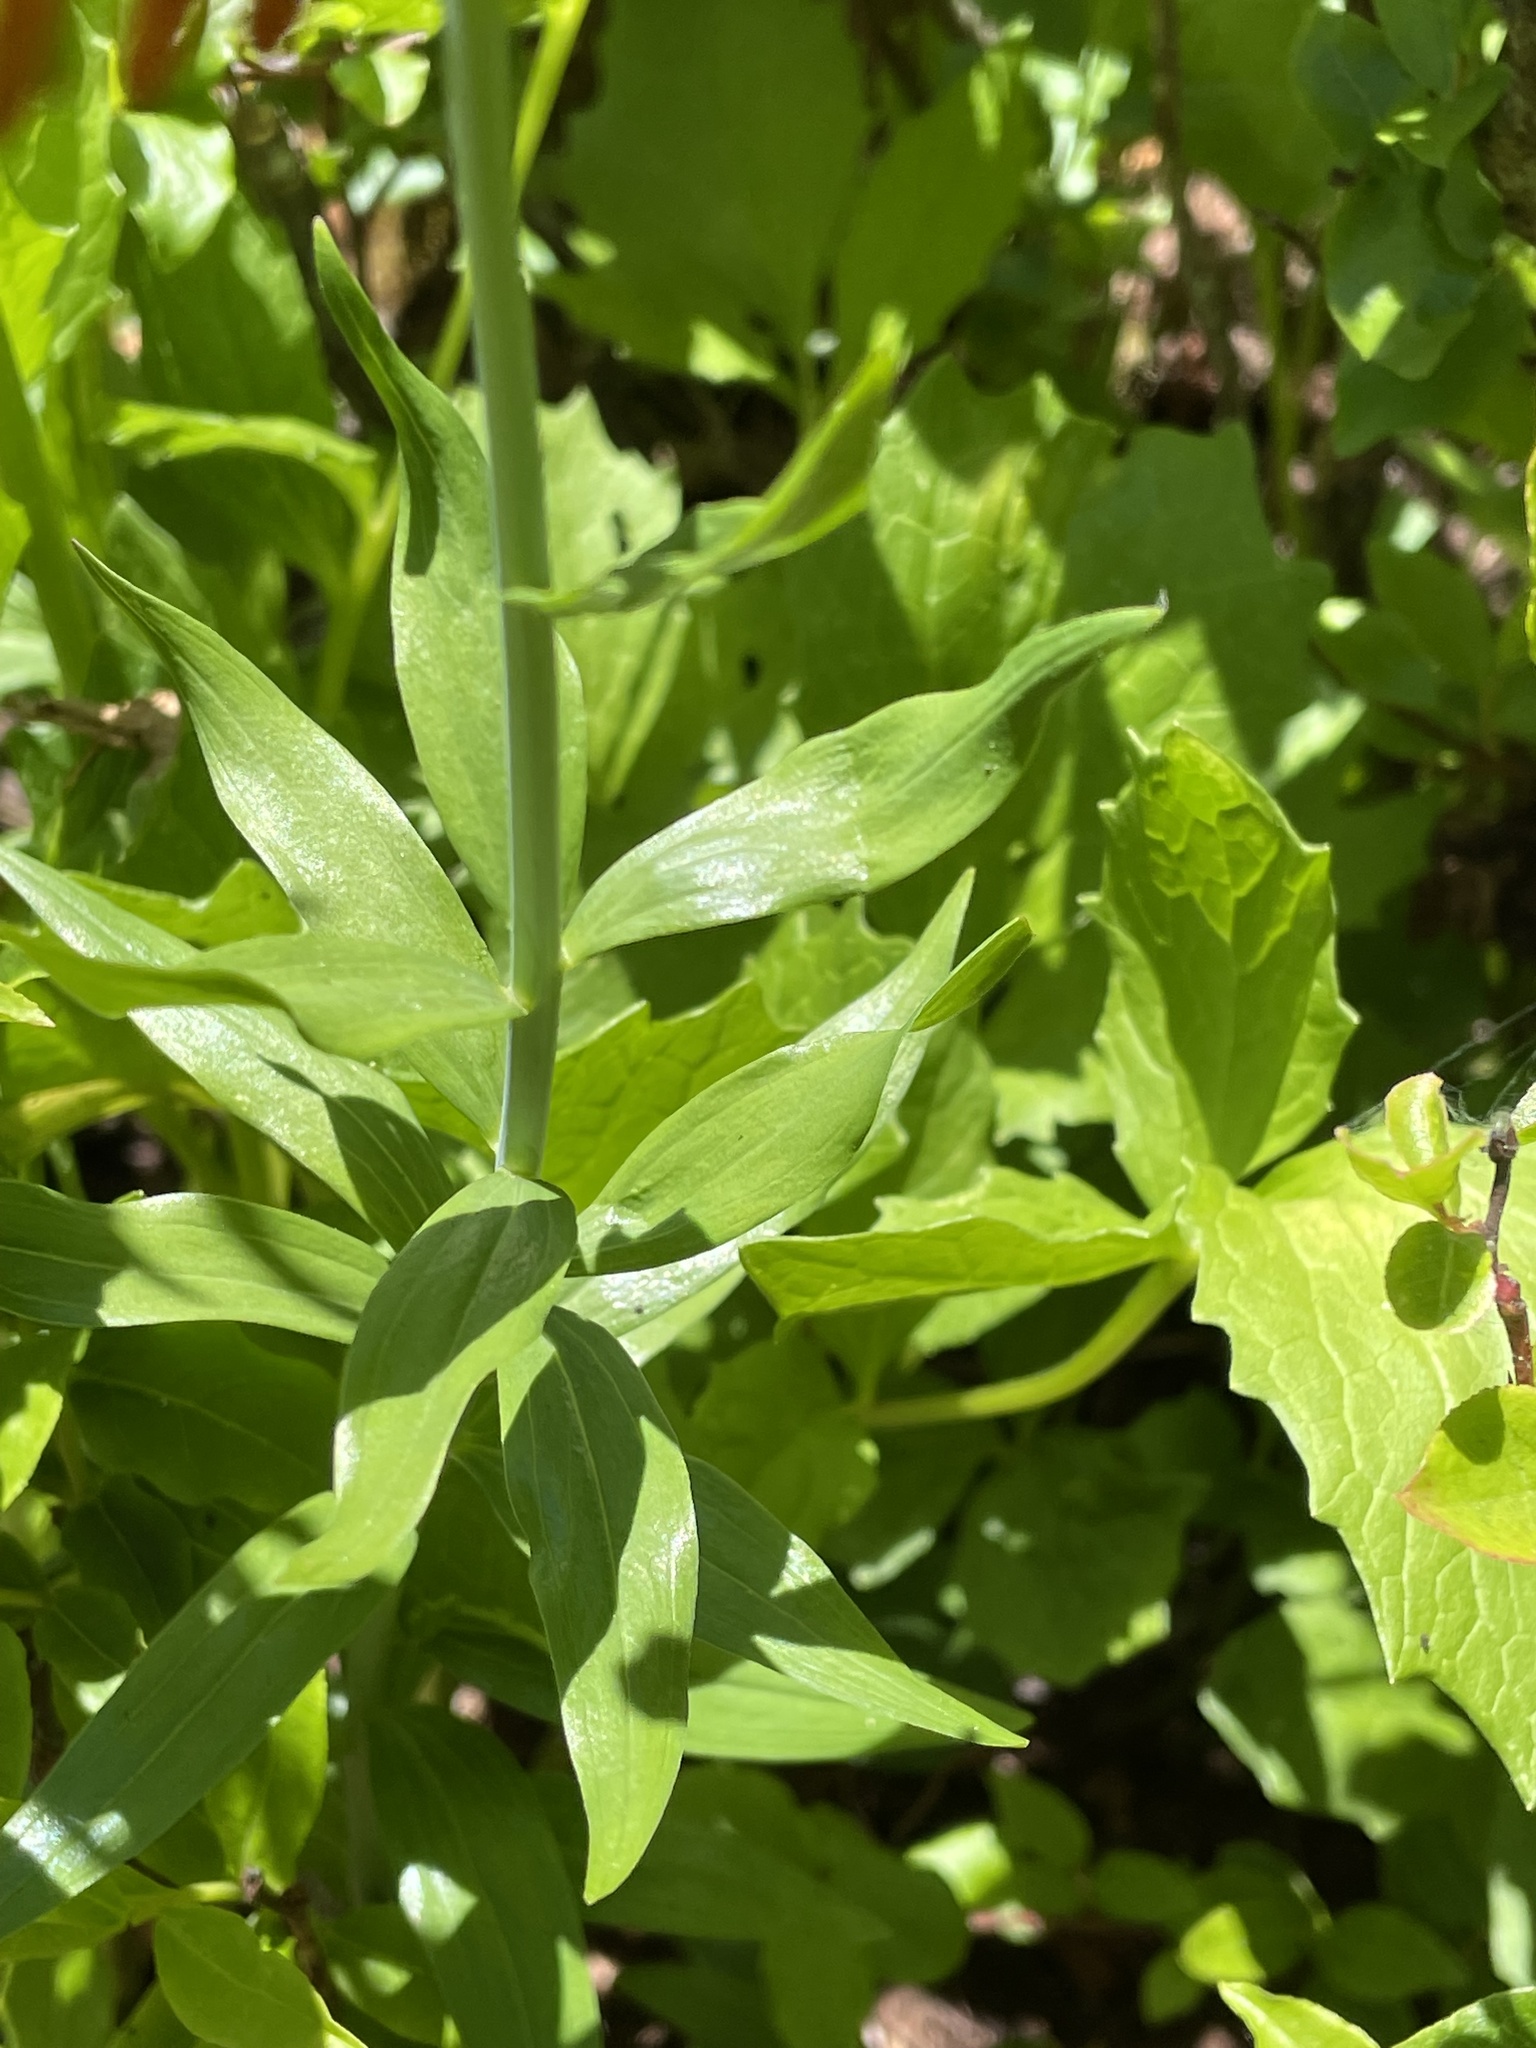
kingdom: Plantae
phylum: Tracheophyta
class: Liliopsida
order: Liliales
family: Liliaceae
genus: Lilium
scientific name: Lilium columbianum
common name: Columbia lily
